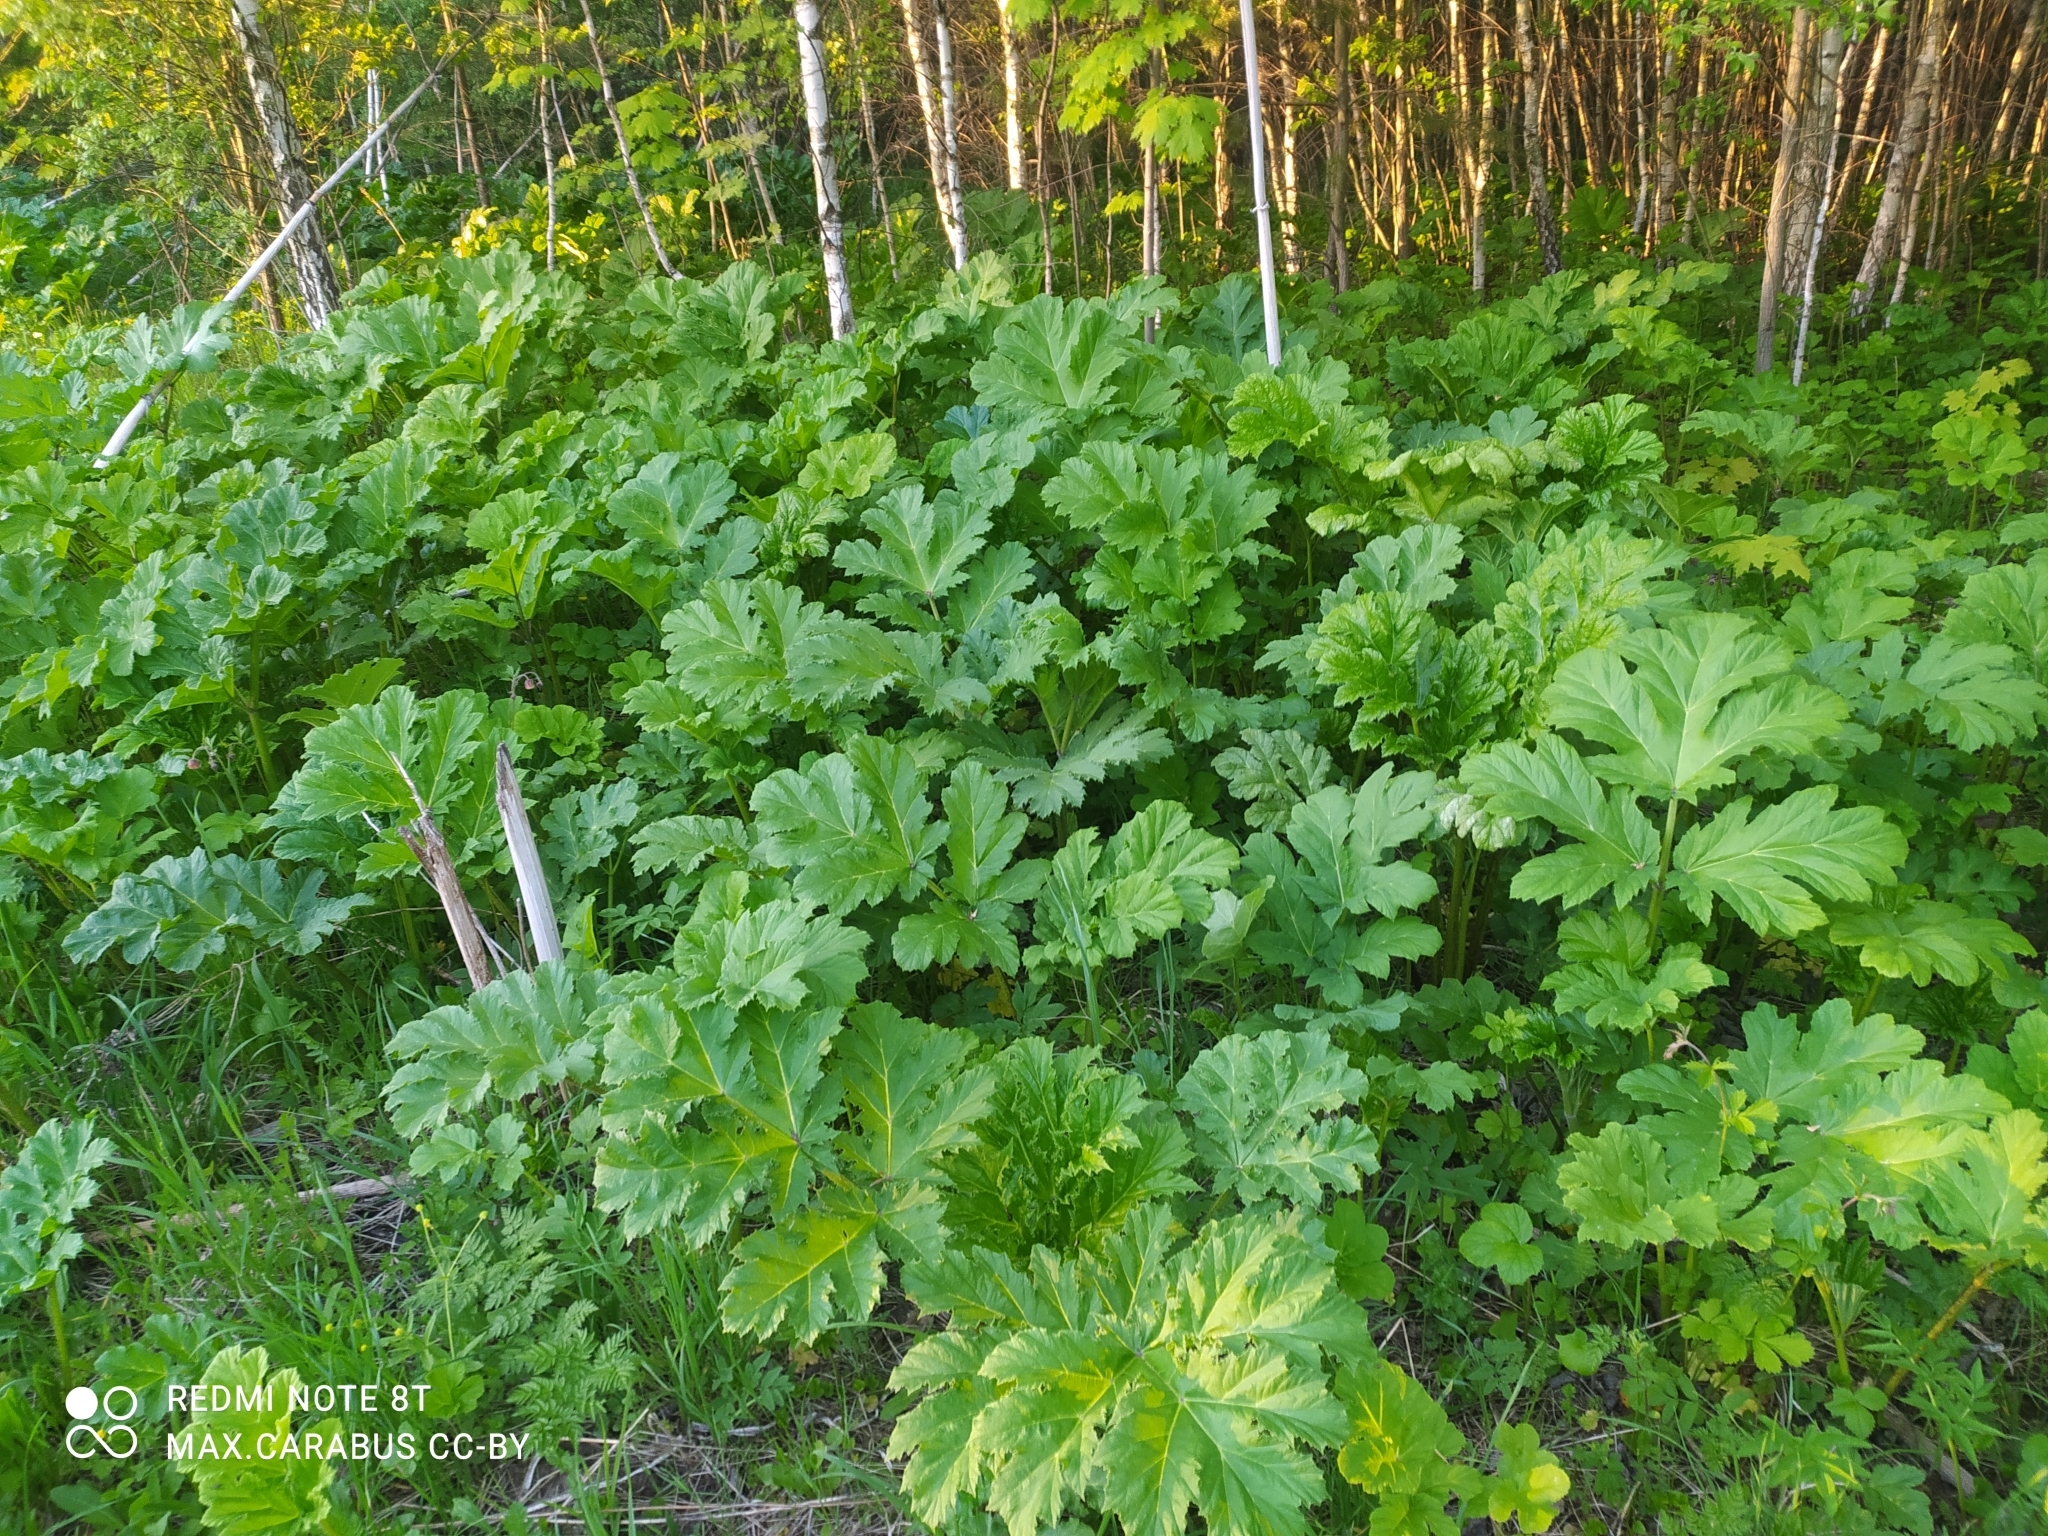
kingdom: Plantae
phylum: Tracheophyta
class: Magnoliopsida
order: Apiales
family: Apiaceae
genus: Heracleum
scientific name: Heracleum sosnowskyi
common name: Sosnowsky's hogweed
